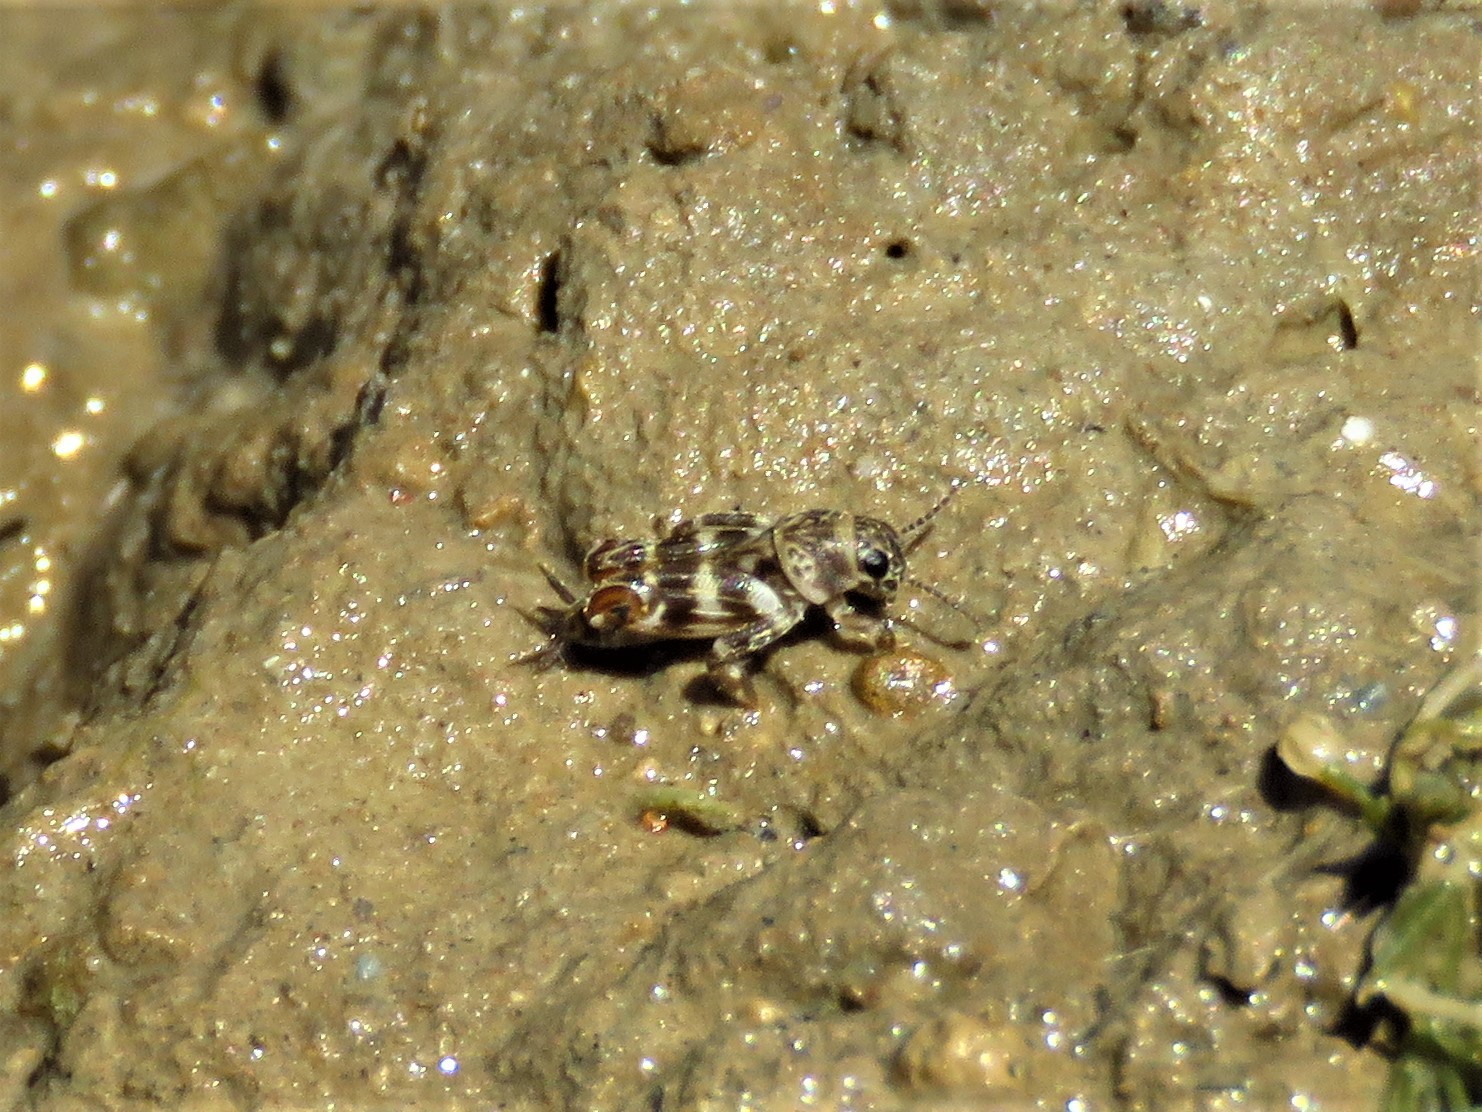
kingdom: Animalia
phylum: Arthropoda
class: Insecta
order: Orthoptera
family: Tridactylidae
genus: Ellipes
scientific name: Ellipes minuta
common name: Minute pygmy locust
